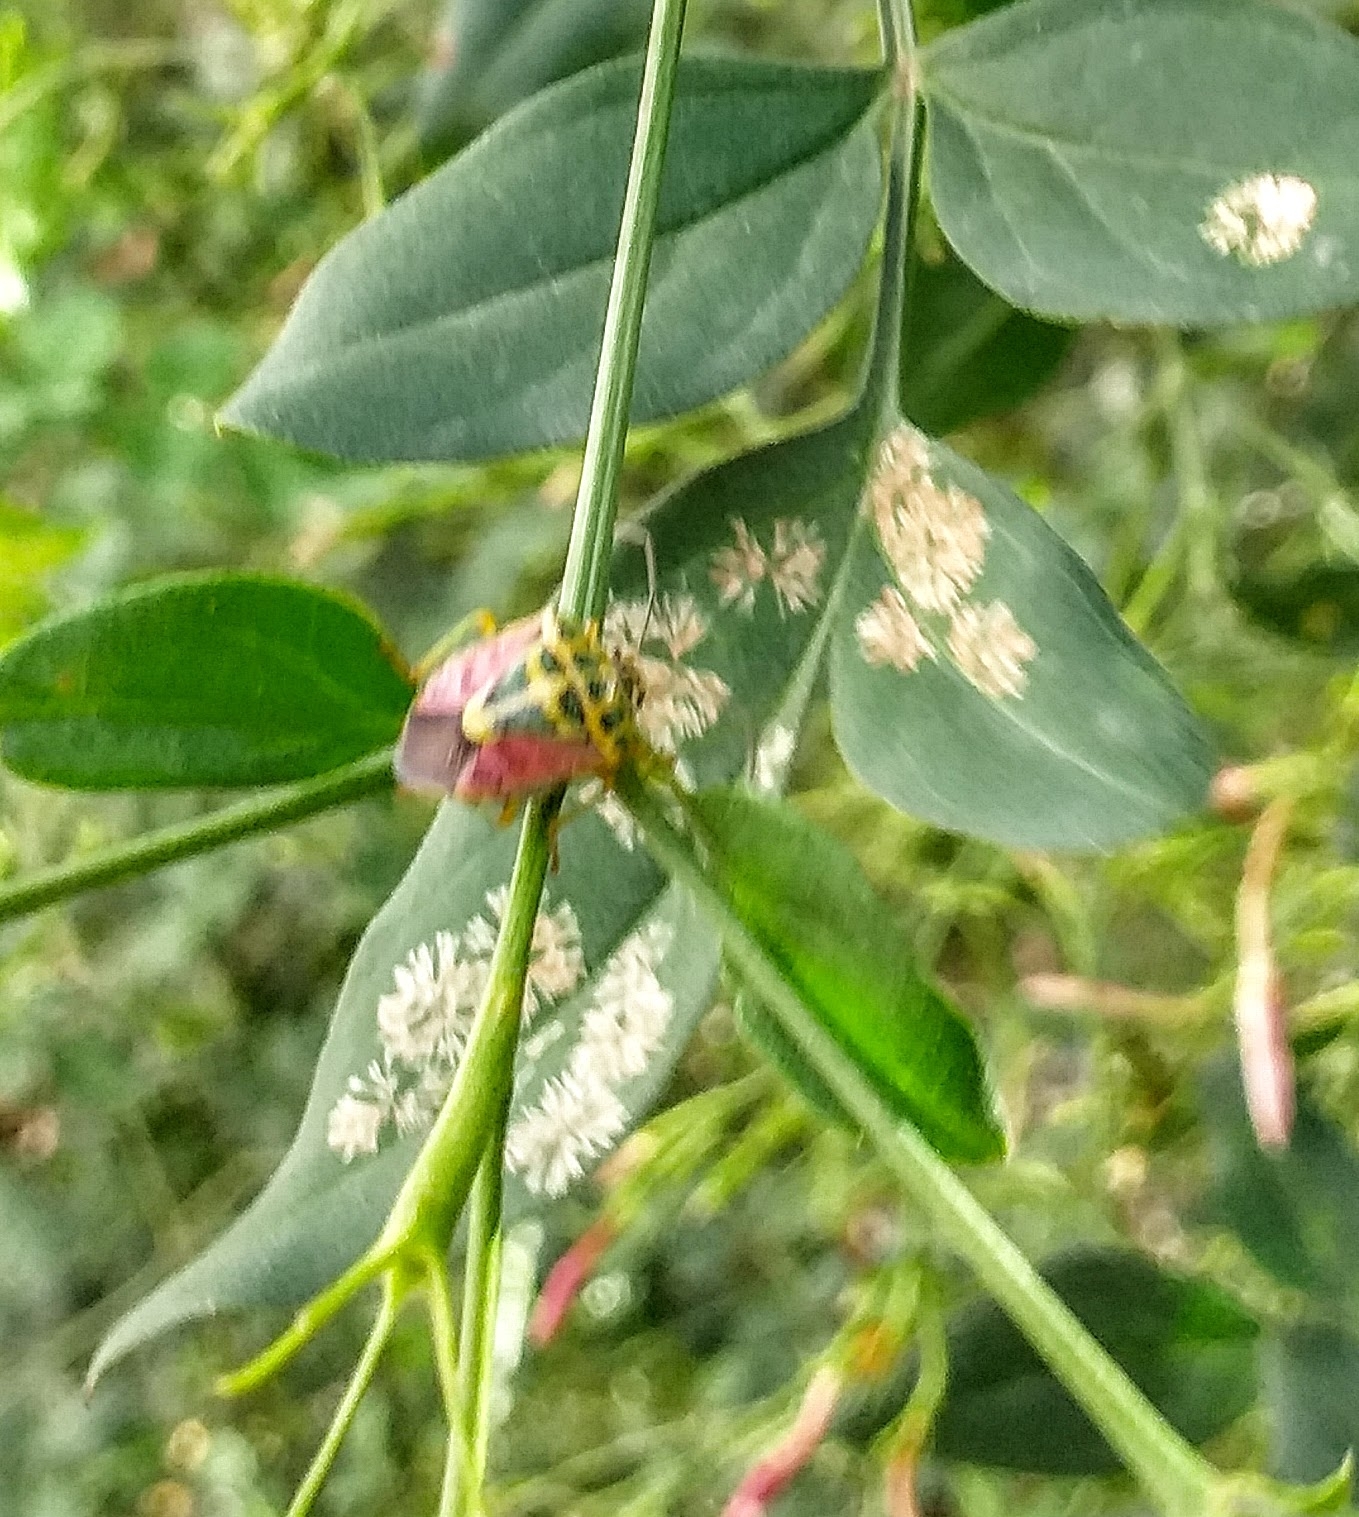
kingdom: Animalia
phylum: Arthropoda
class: Insecta
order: Hemiptera
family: Pentatomidae
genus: Antestiopsis
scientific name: Antestiopsis cruciata
